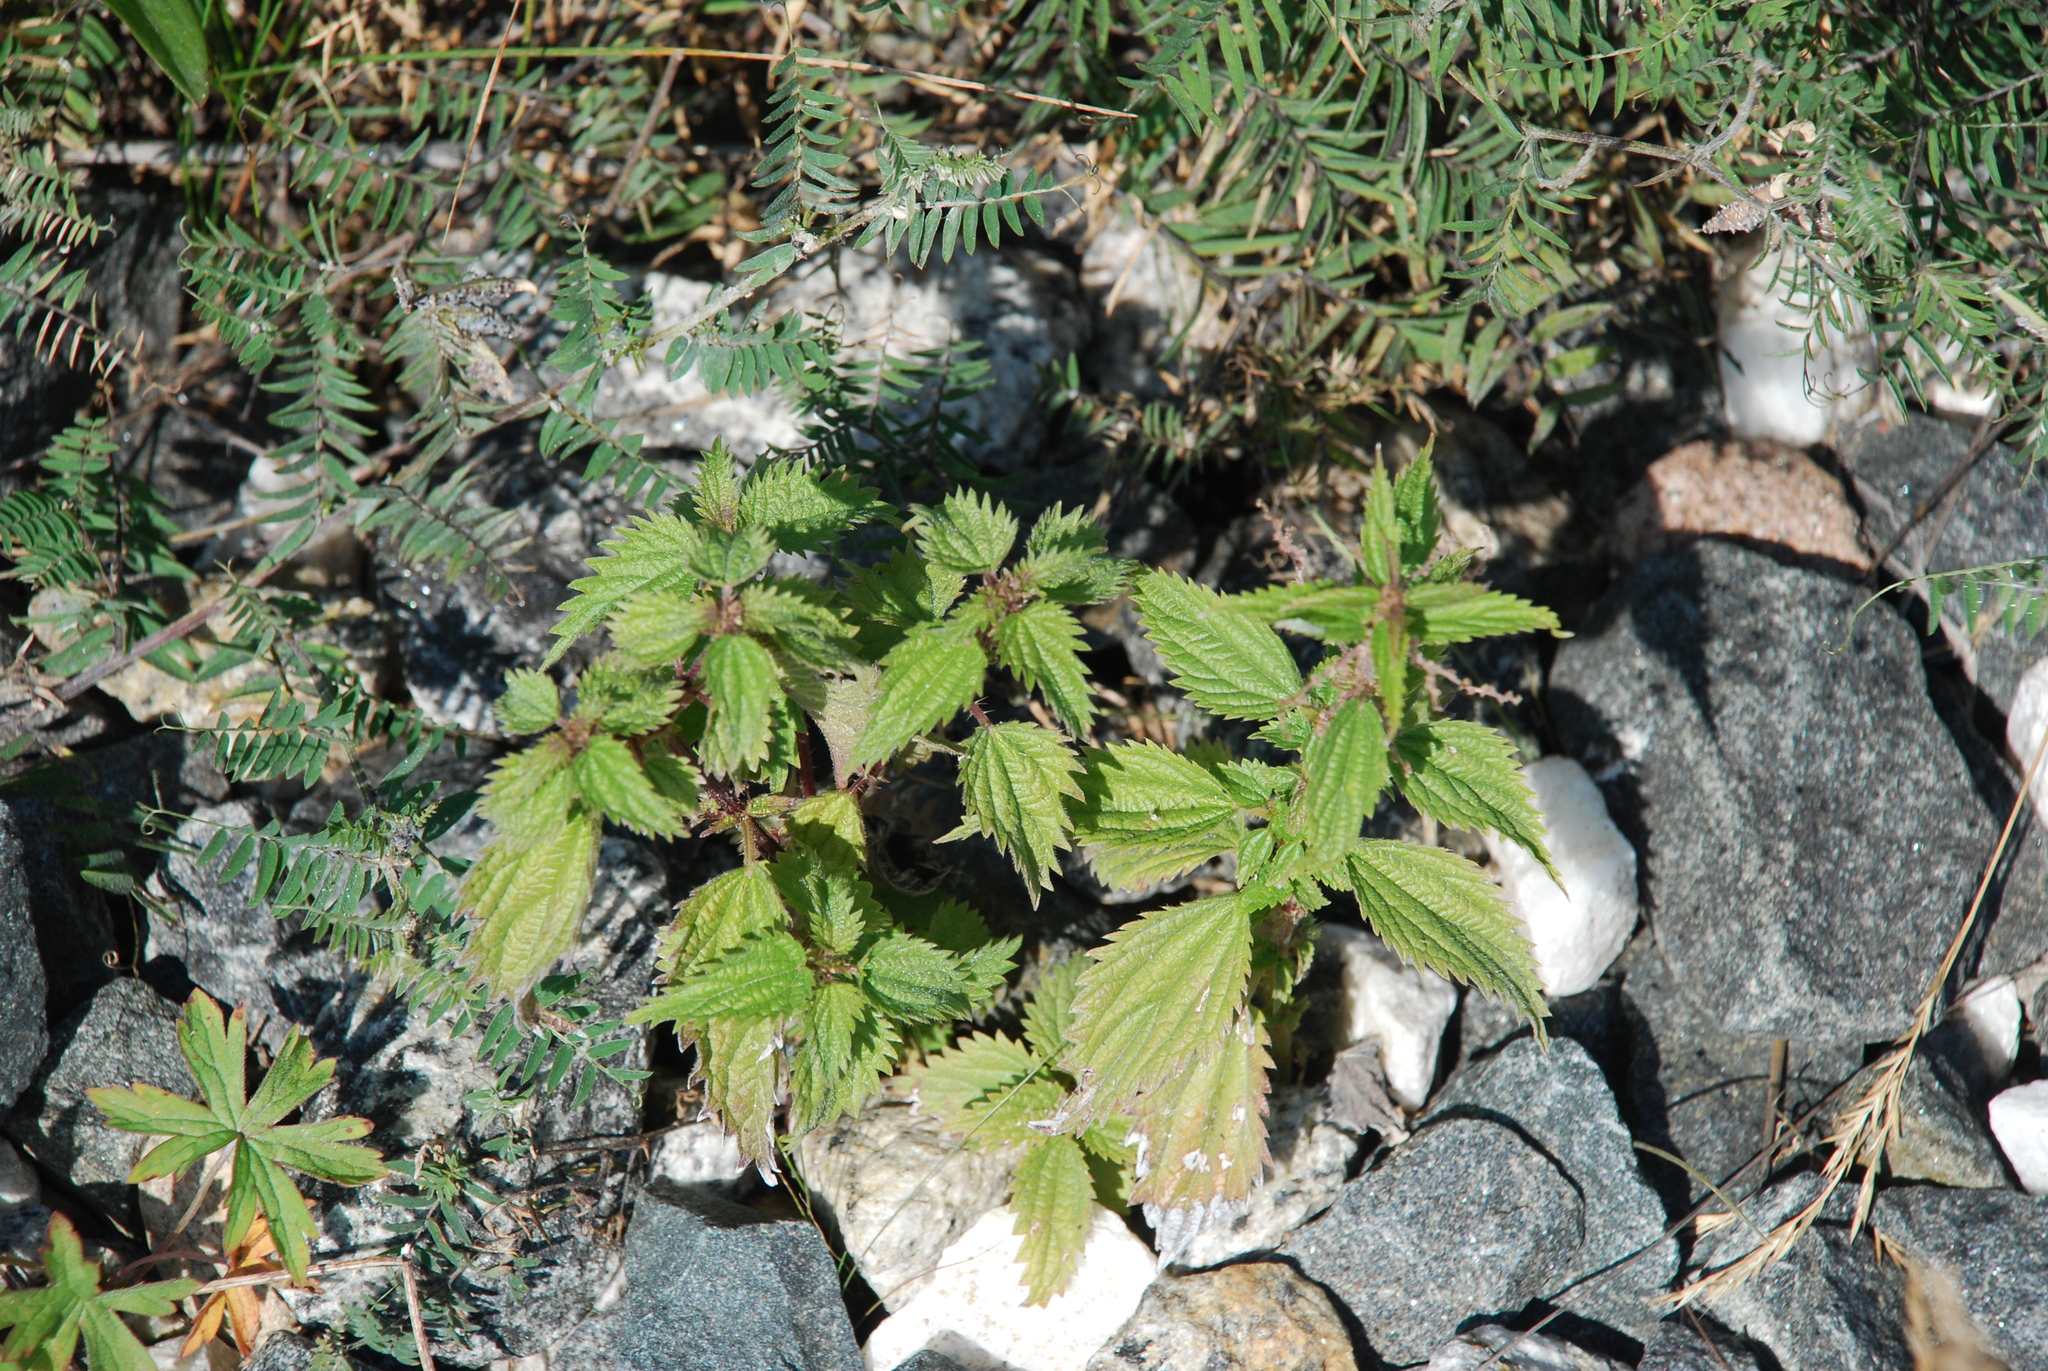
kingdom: Plantae
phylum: Tracheophyta
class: Magnoliopsida
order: Rosales
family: Urticaceae
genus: Urtica
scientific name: Urtica dioica
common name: Common nettle
